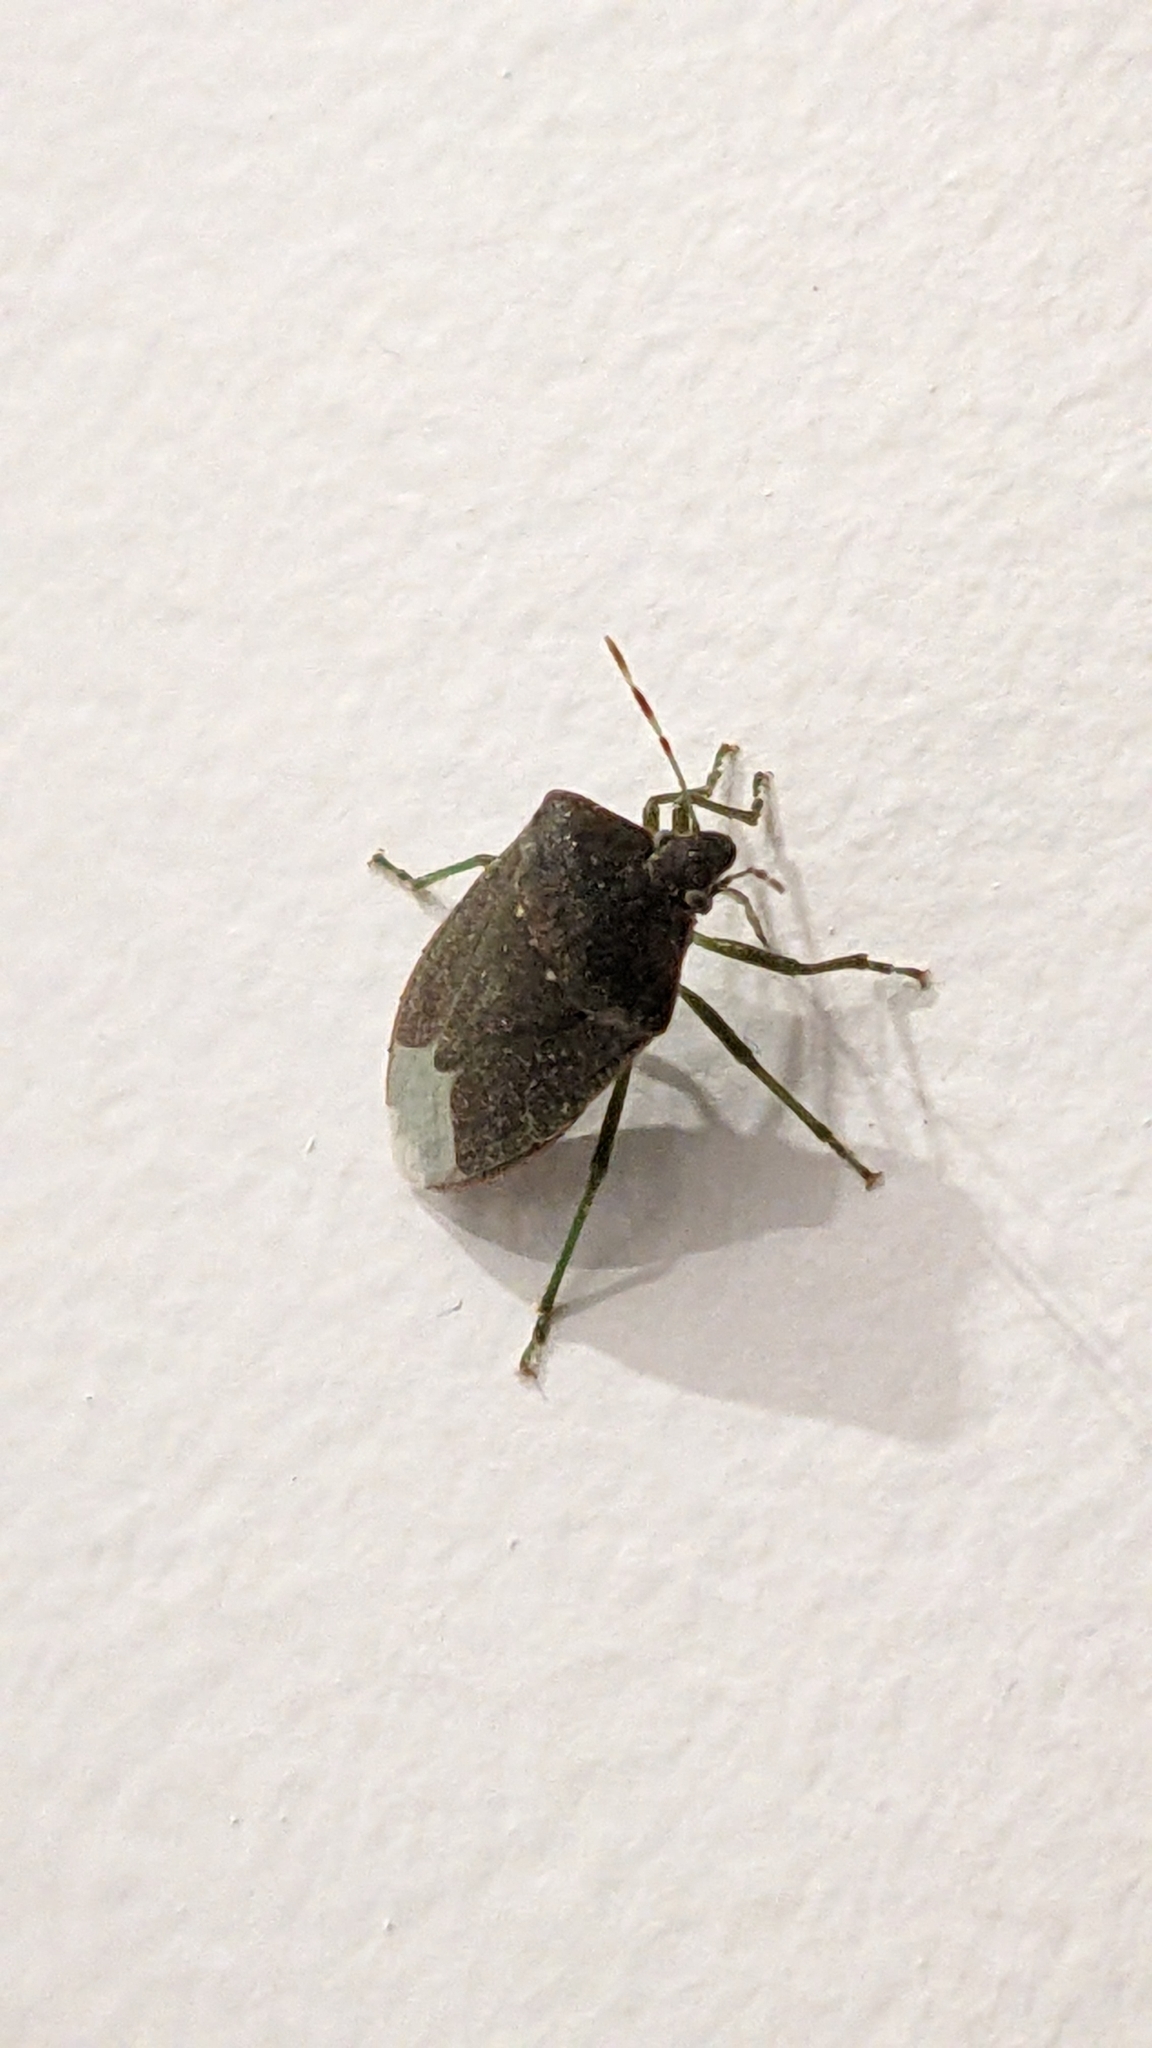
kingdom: Animalia
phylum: Arthropoda
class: Insecta
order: Hemiptera
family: Pentatomidae
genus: Nezara
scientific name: Nezara viridula
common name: Southern green stink bug
